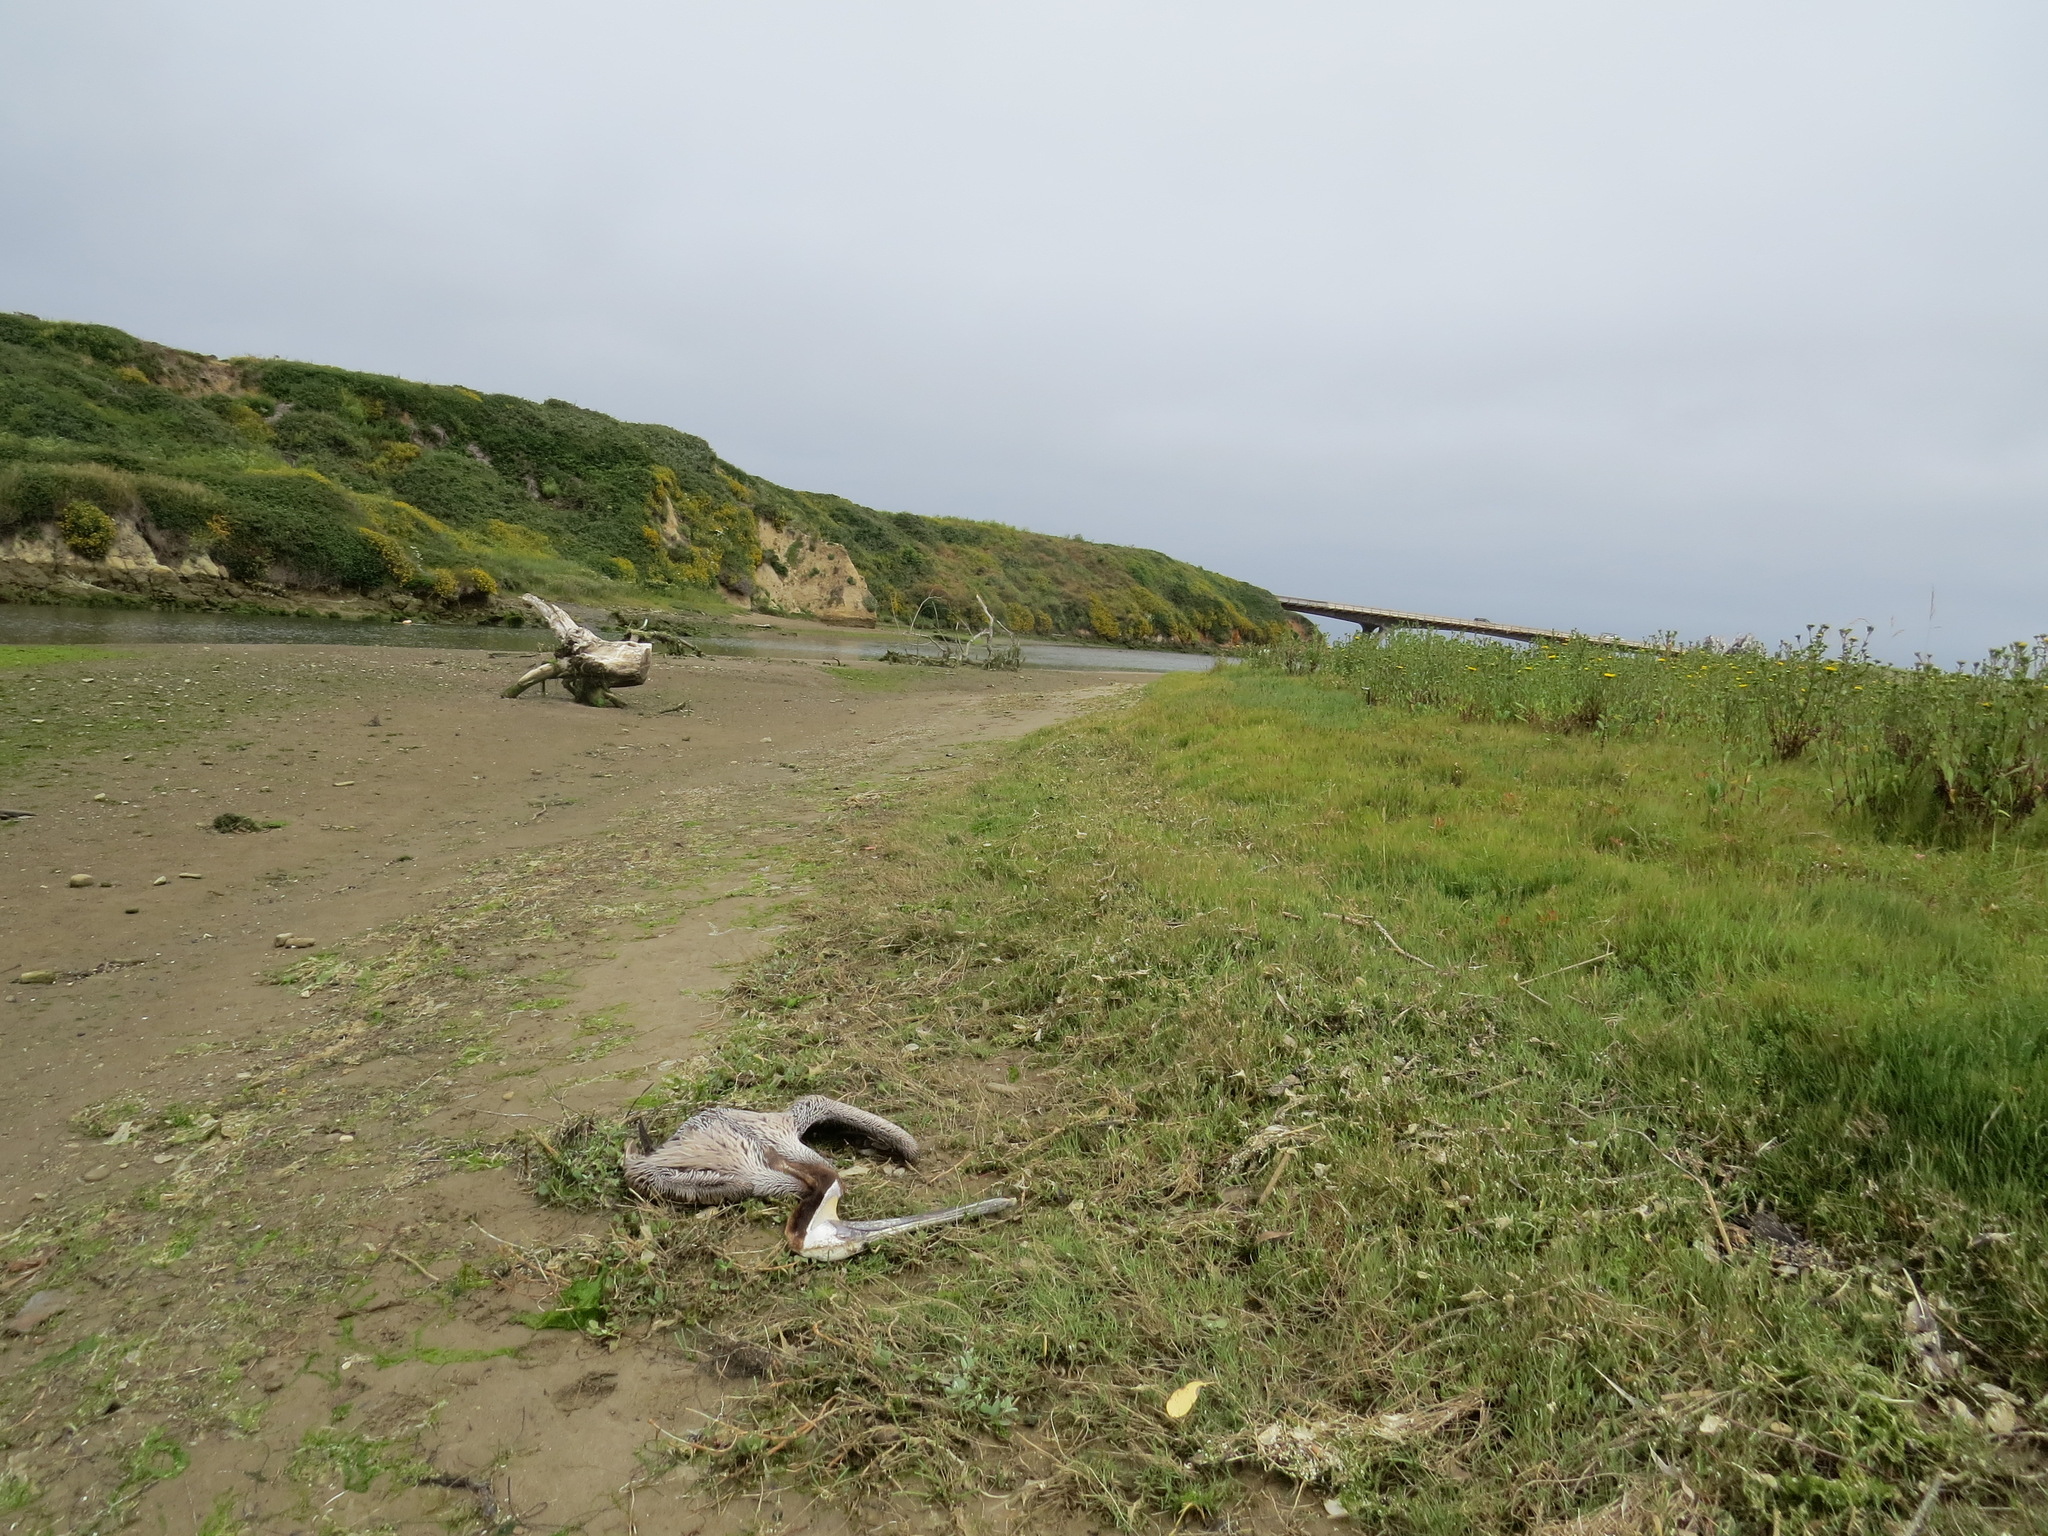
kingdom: Animalia
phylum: Chordata
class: Aves
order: Pelecaniformes
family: Pelecanidae
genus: Pelecanus
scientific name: Pelecanus occidentalis
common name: Brown pelican
